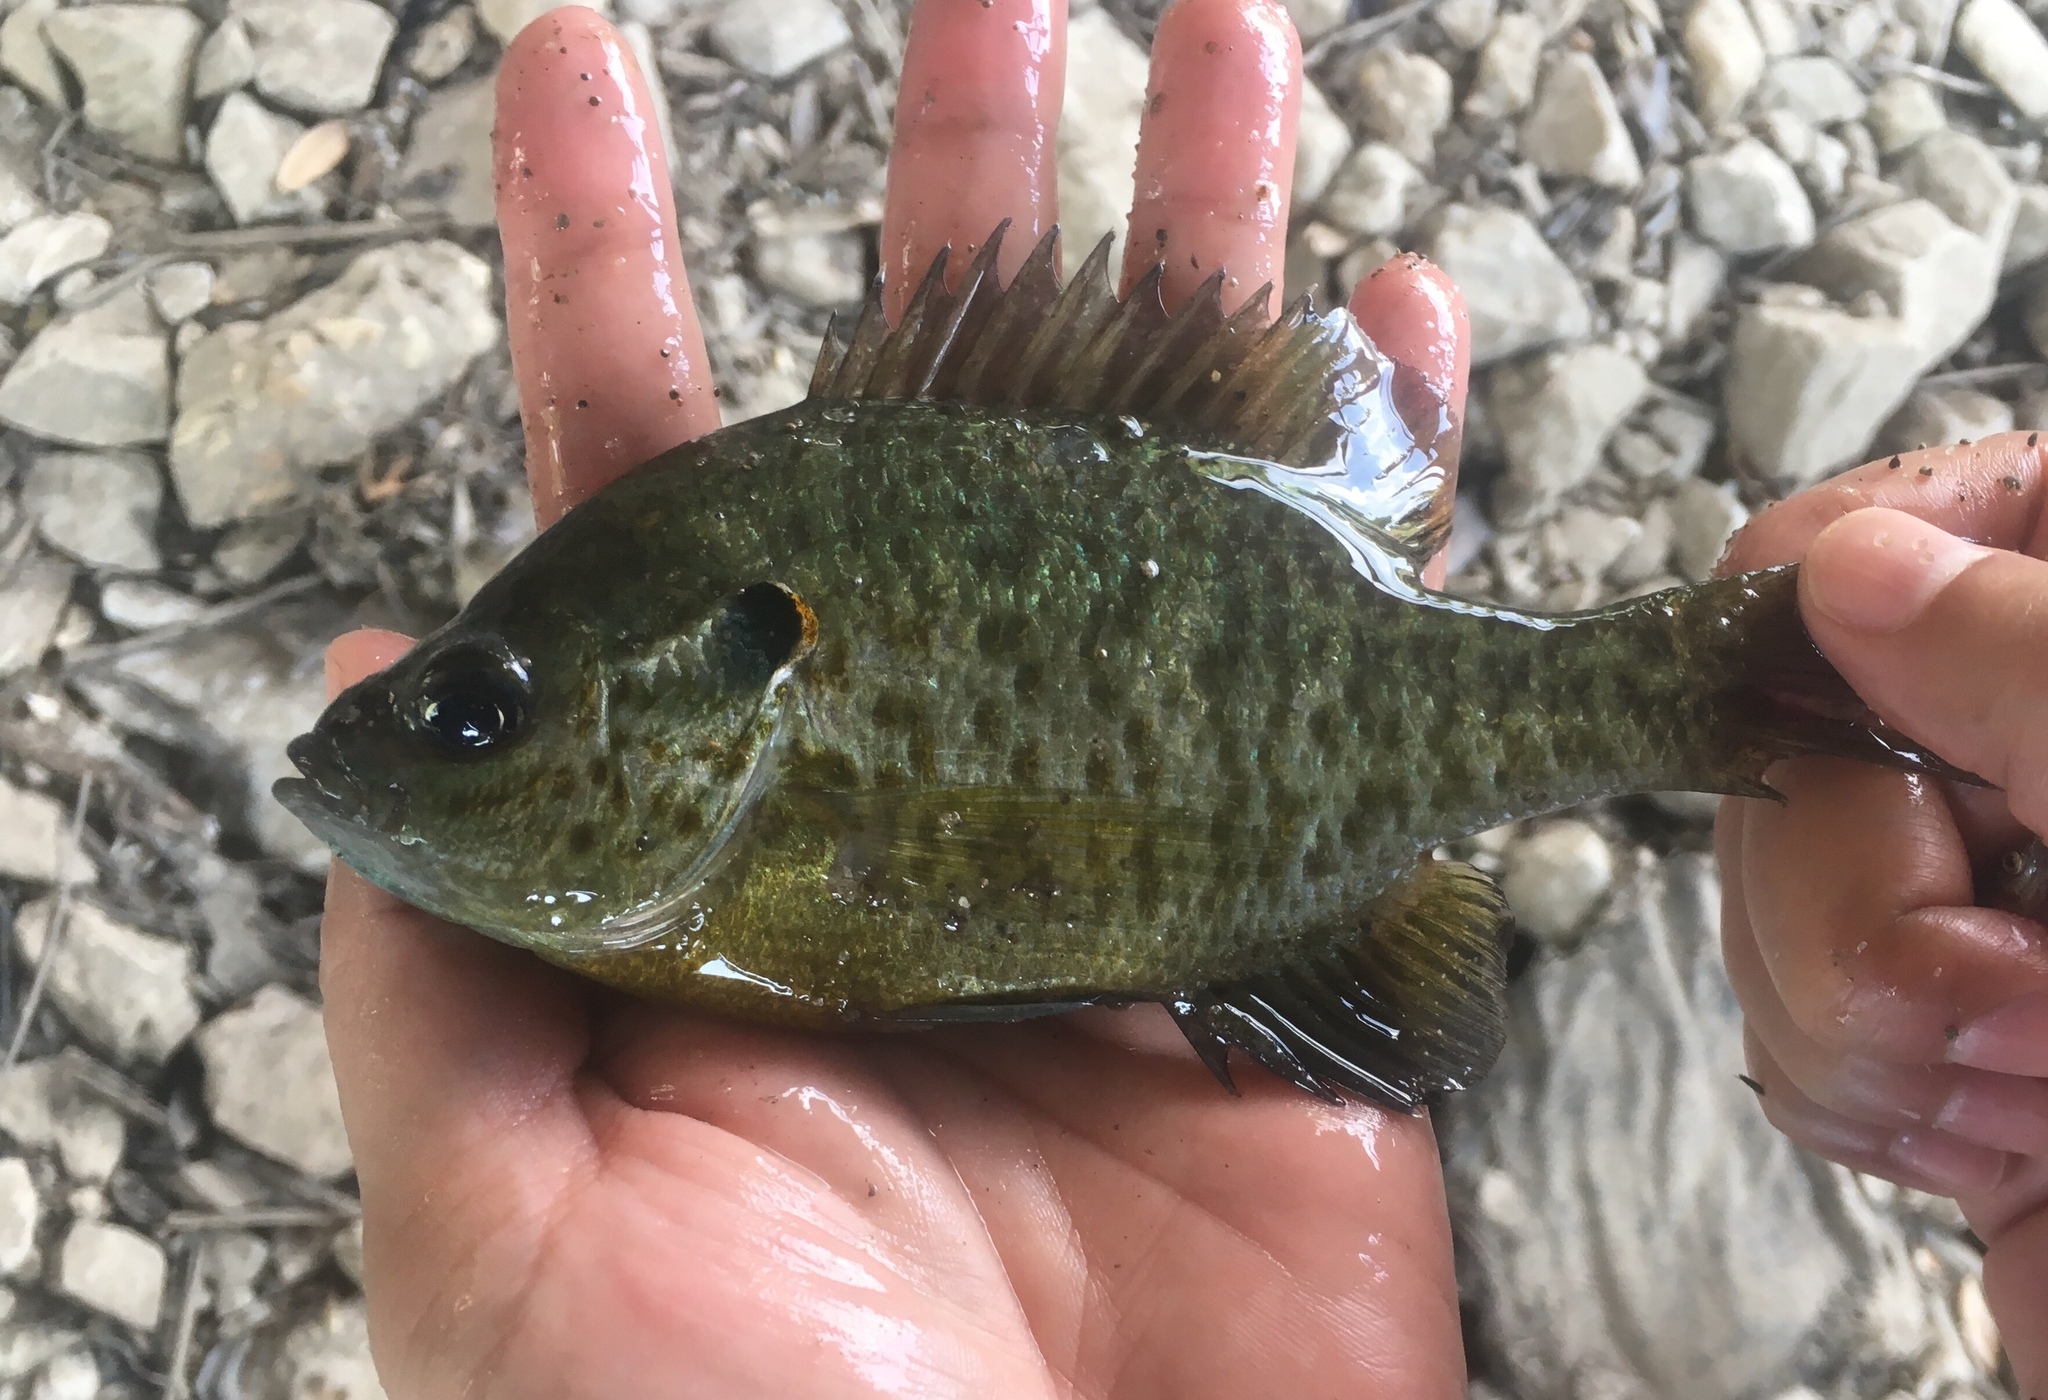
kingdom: Animalia
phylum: Chordata
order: Perciformes
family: Centrarchidae
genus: Lepomis
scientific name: Lepomis microlophus
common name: Redear sunfish
